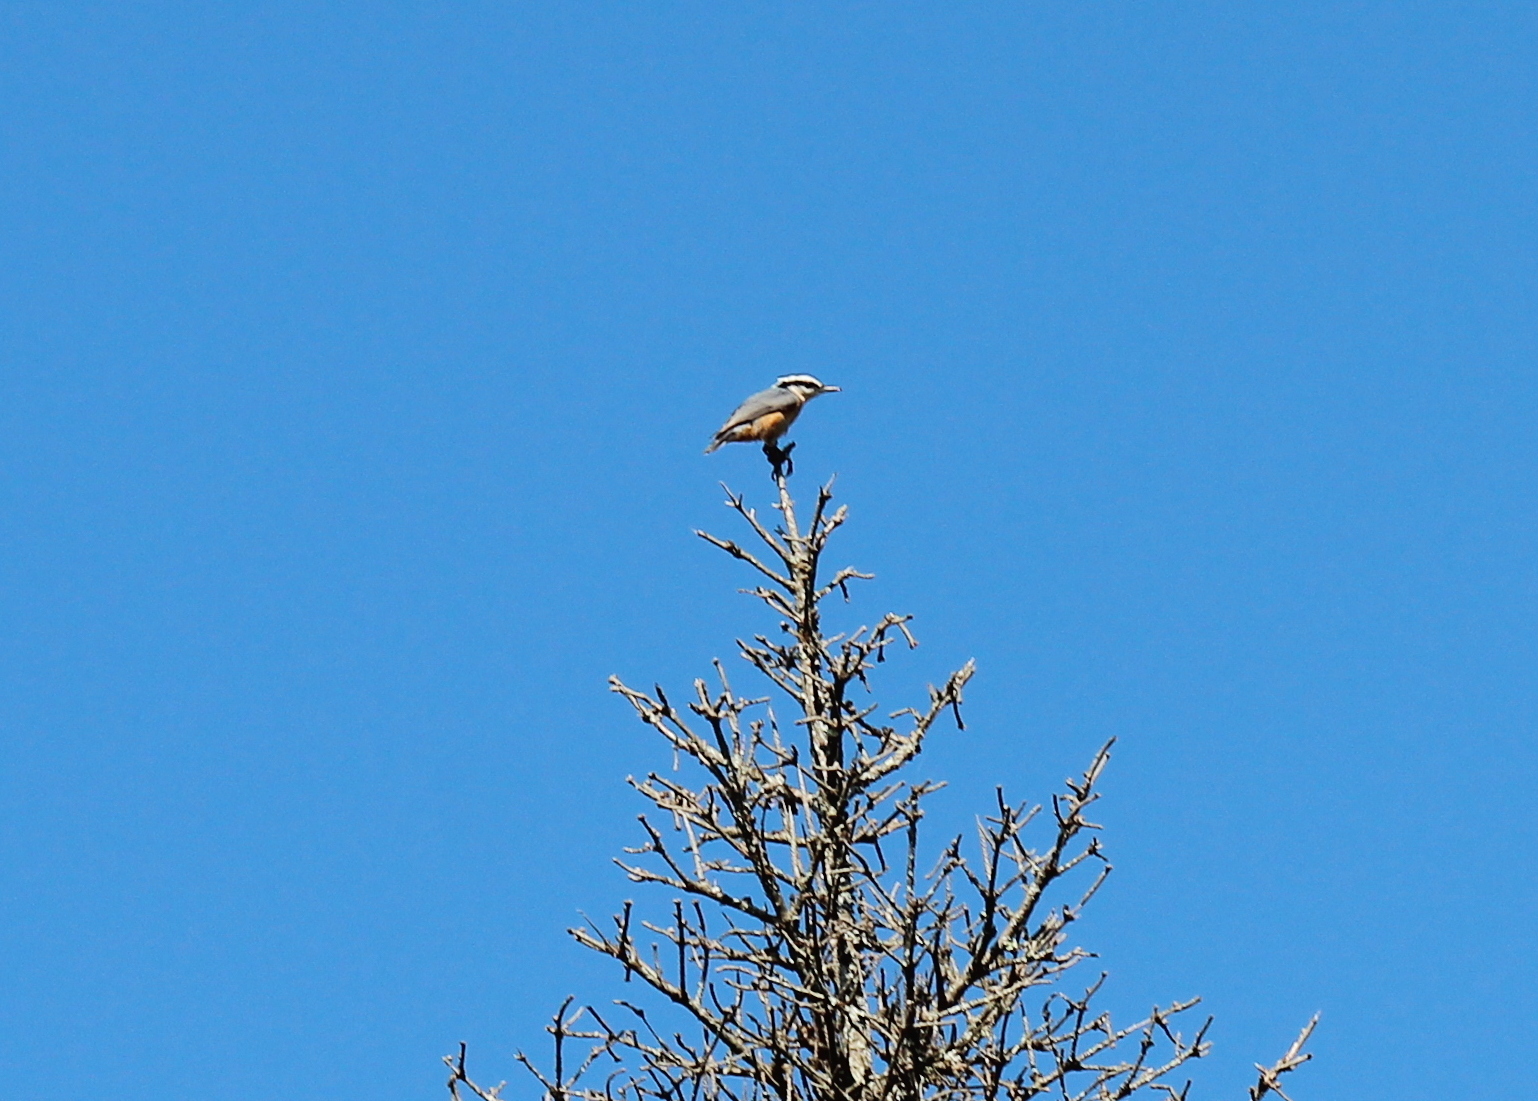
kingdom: Animalia
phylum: Chordata
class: Aves
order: Passeriformes
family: Sittidae
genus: Sitta
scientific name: Sitta canadensis
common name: Red-breasted nuthatch
